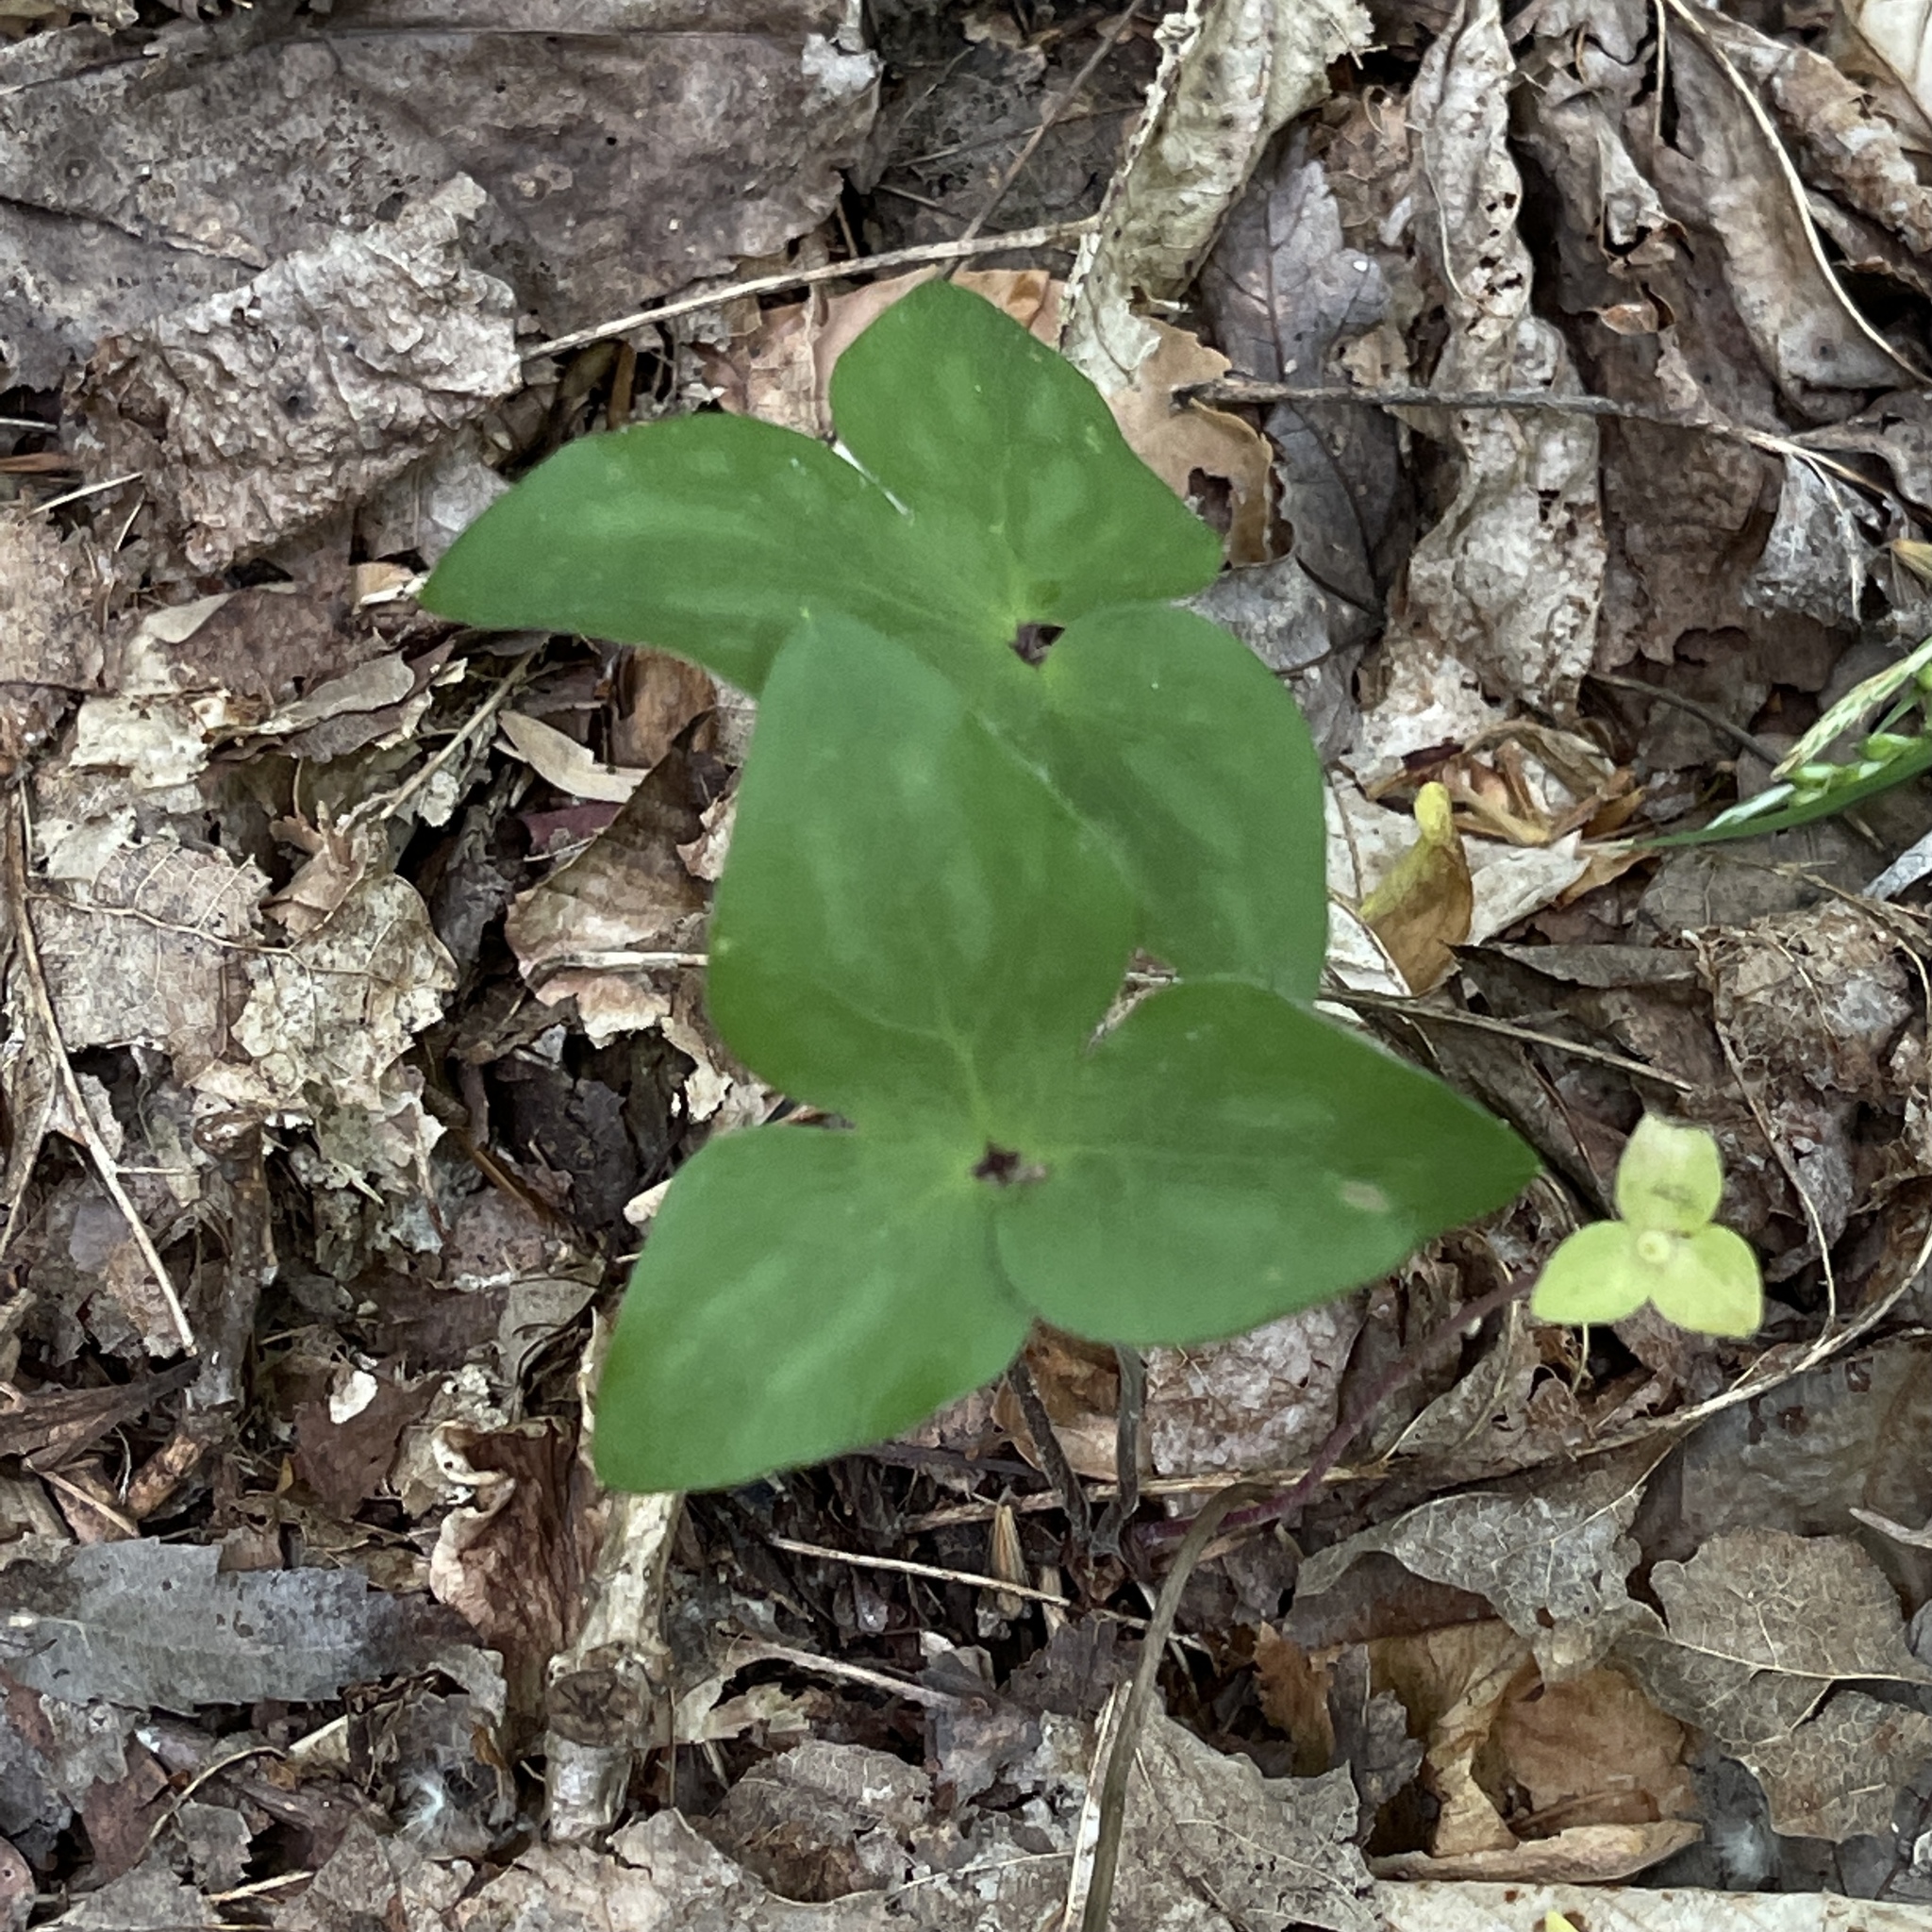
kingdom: Plantae
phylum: Tracheophyta
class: Magnoliopsida
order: Ranunculales
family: Ranunculaceae
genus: Hepatica
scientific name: Hepatica acutiloba
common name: Sharp-lobed hepatica
